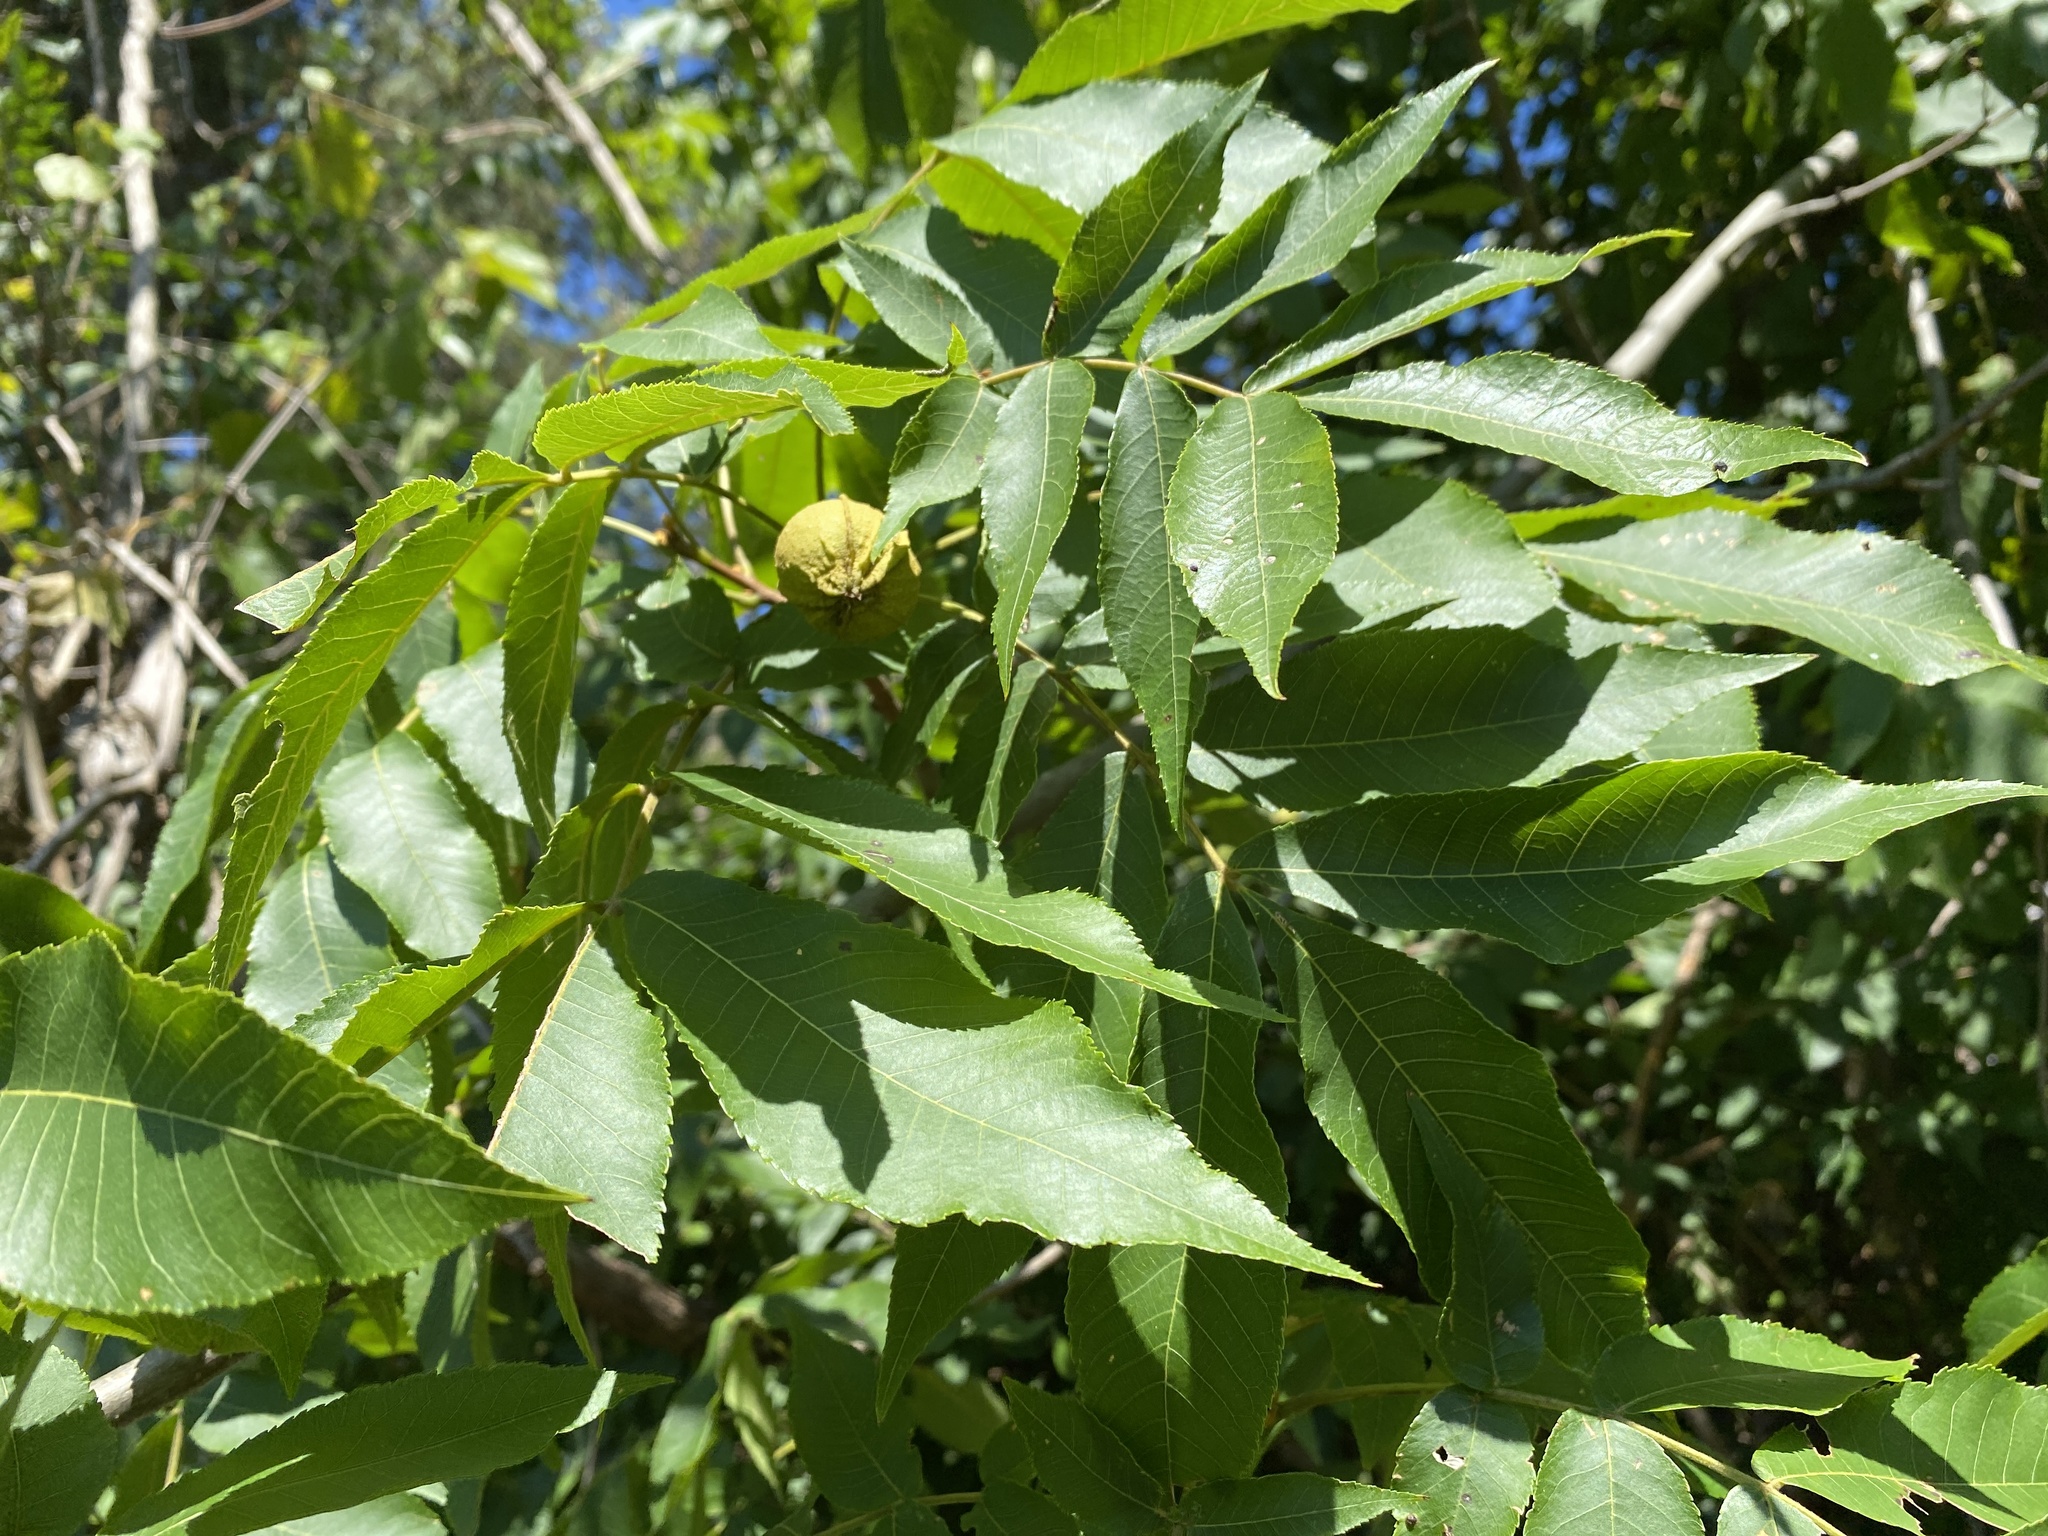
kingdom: Plantae
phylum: Tracheophyta
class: Magnoliopsida
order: Fagales
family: Juglandaceae
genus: Carya
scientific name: Carya cordiformis
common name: Bitternut hickory
